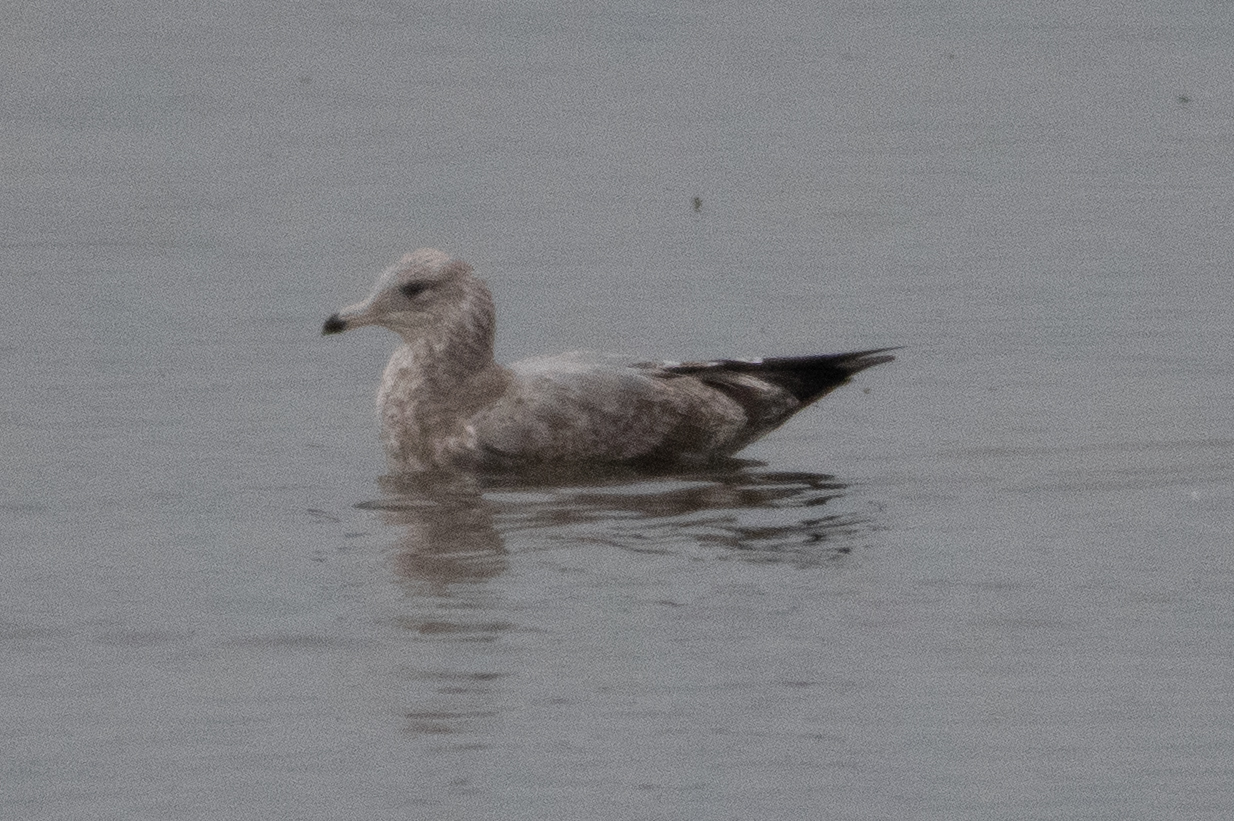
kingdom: Animalia
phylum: Chordata
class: Aves
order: Charadriiformes
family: Laridae
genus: Larus
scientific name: Larus californicus
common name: California gull
